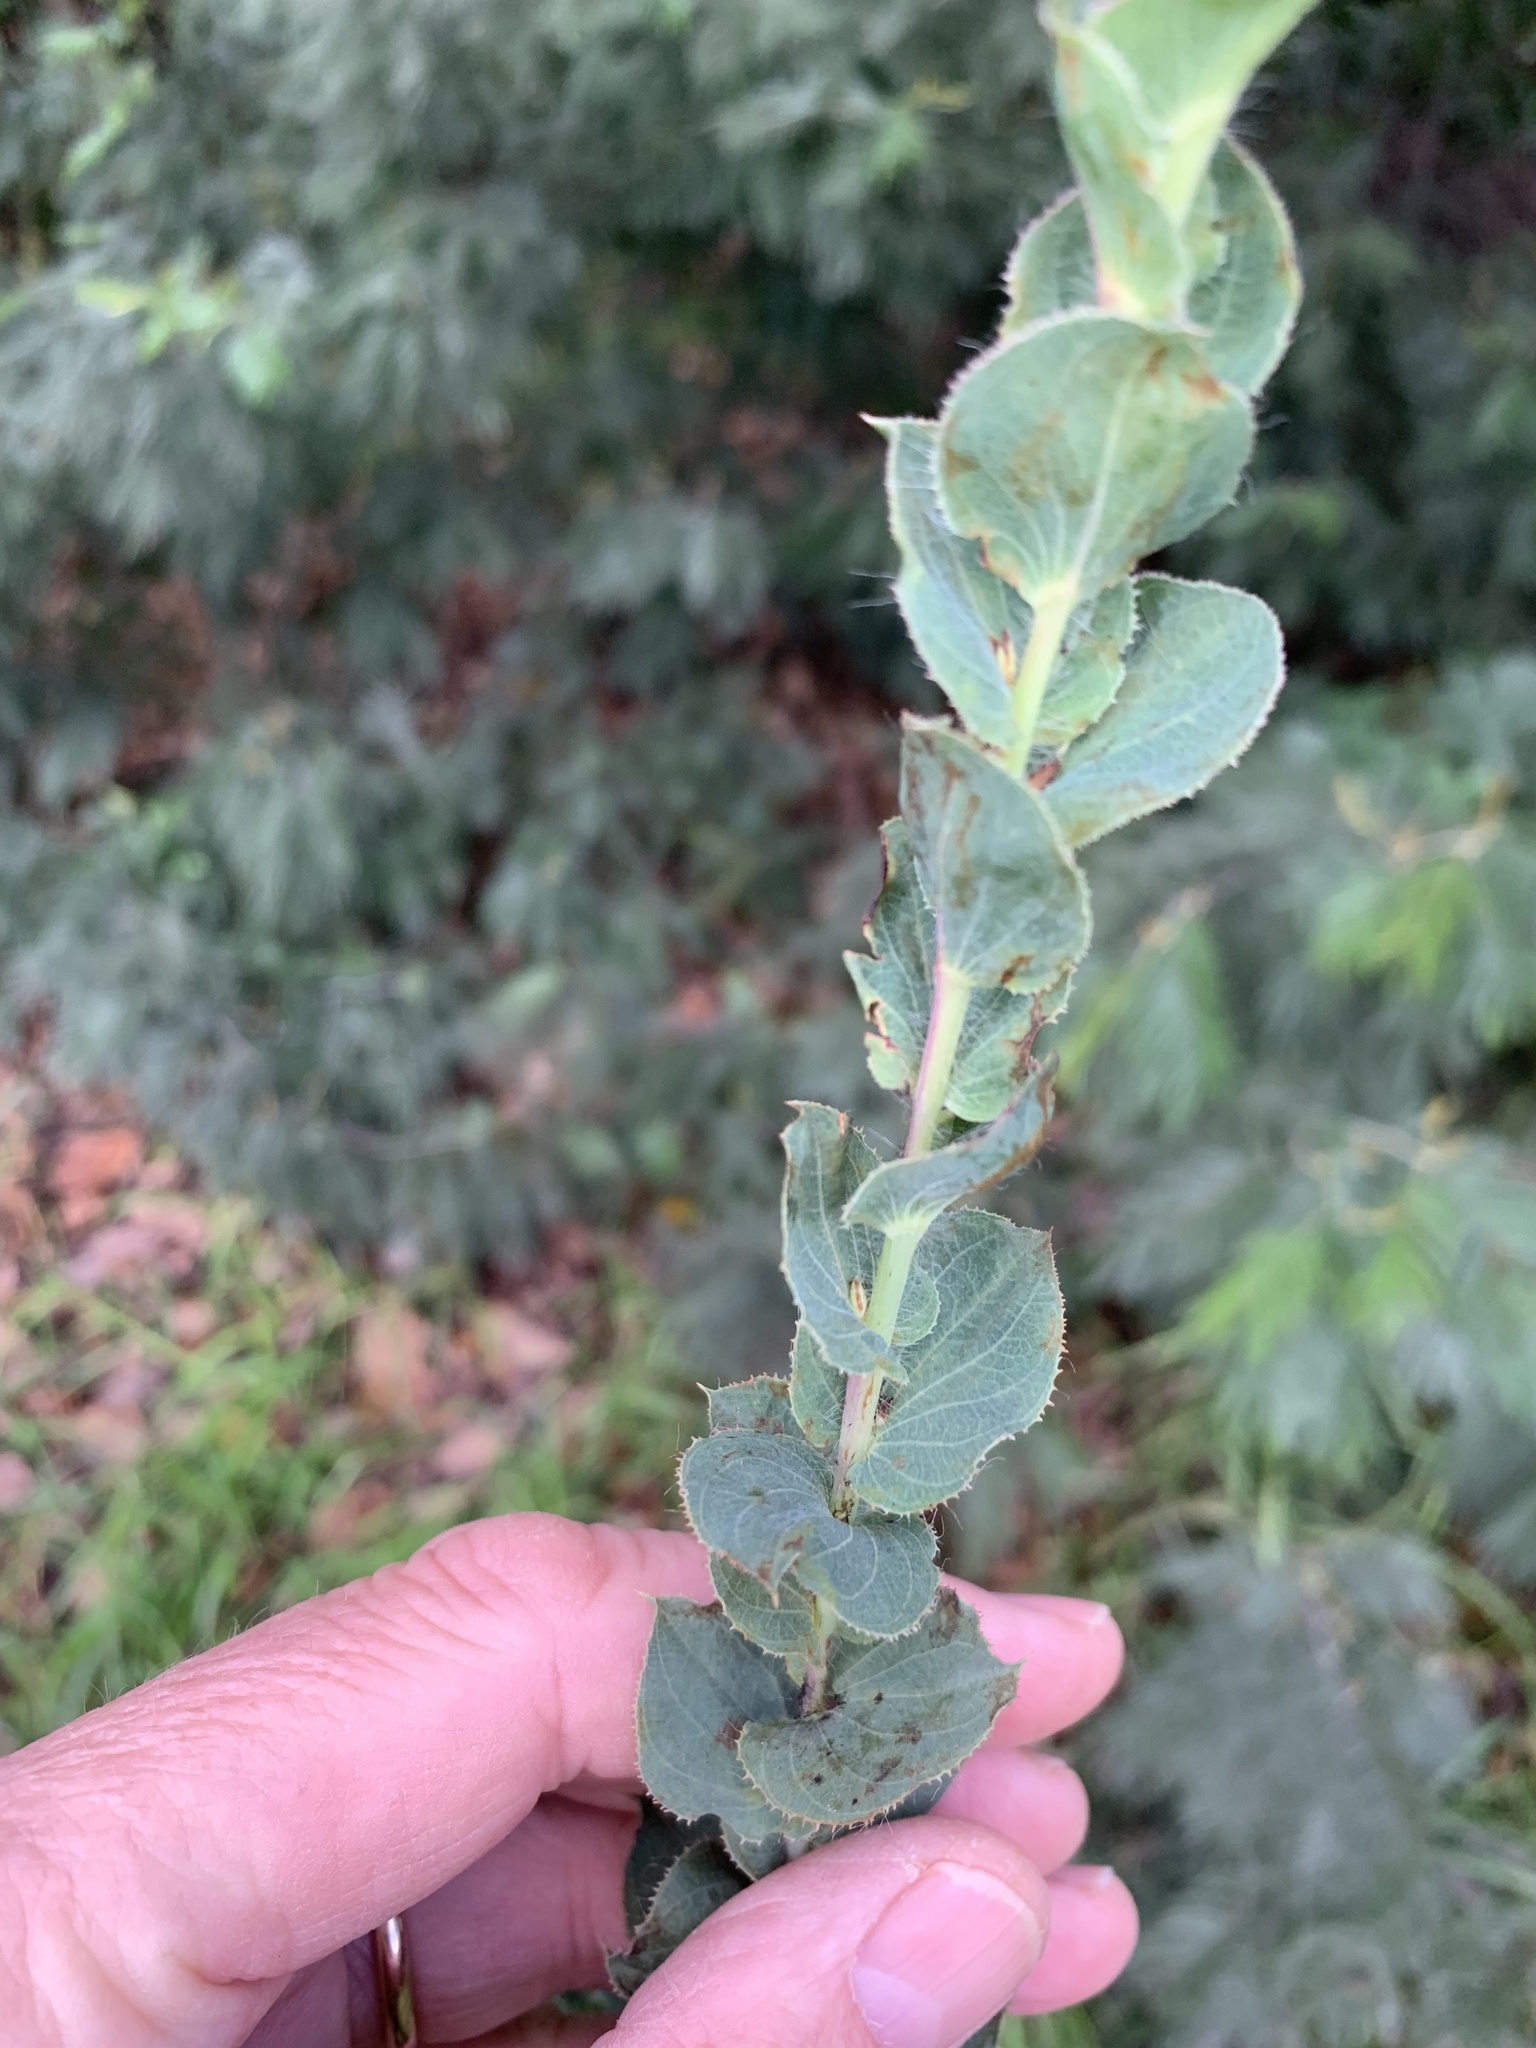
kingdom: Plantae
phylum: Tracheophyta
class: Magnoliopsida
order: Fabales
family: Fabaceae
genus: Aspalathus
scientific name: Aspalathus perfoliata
